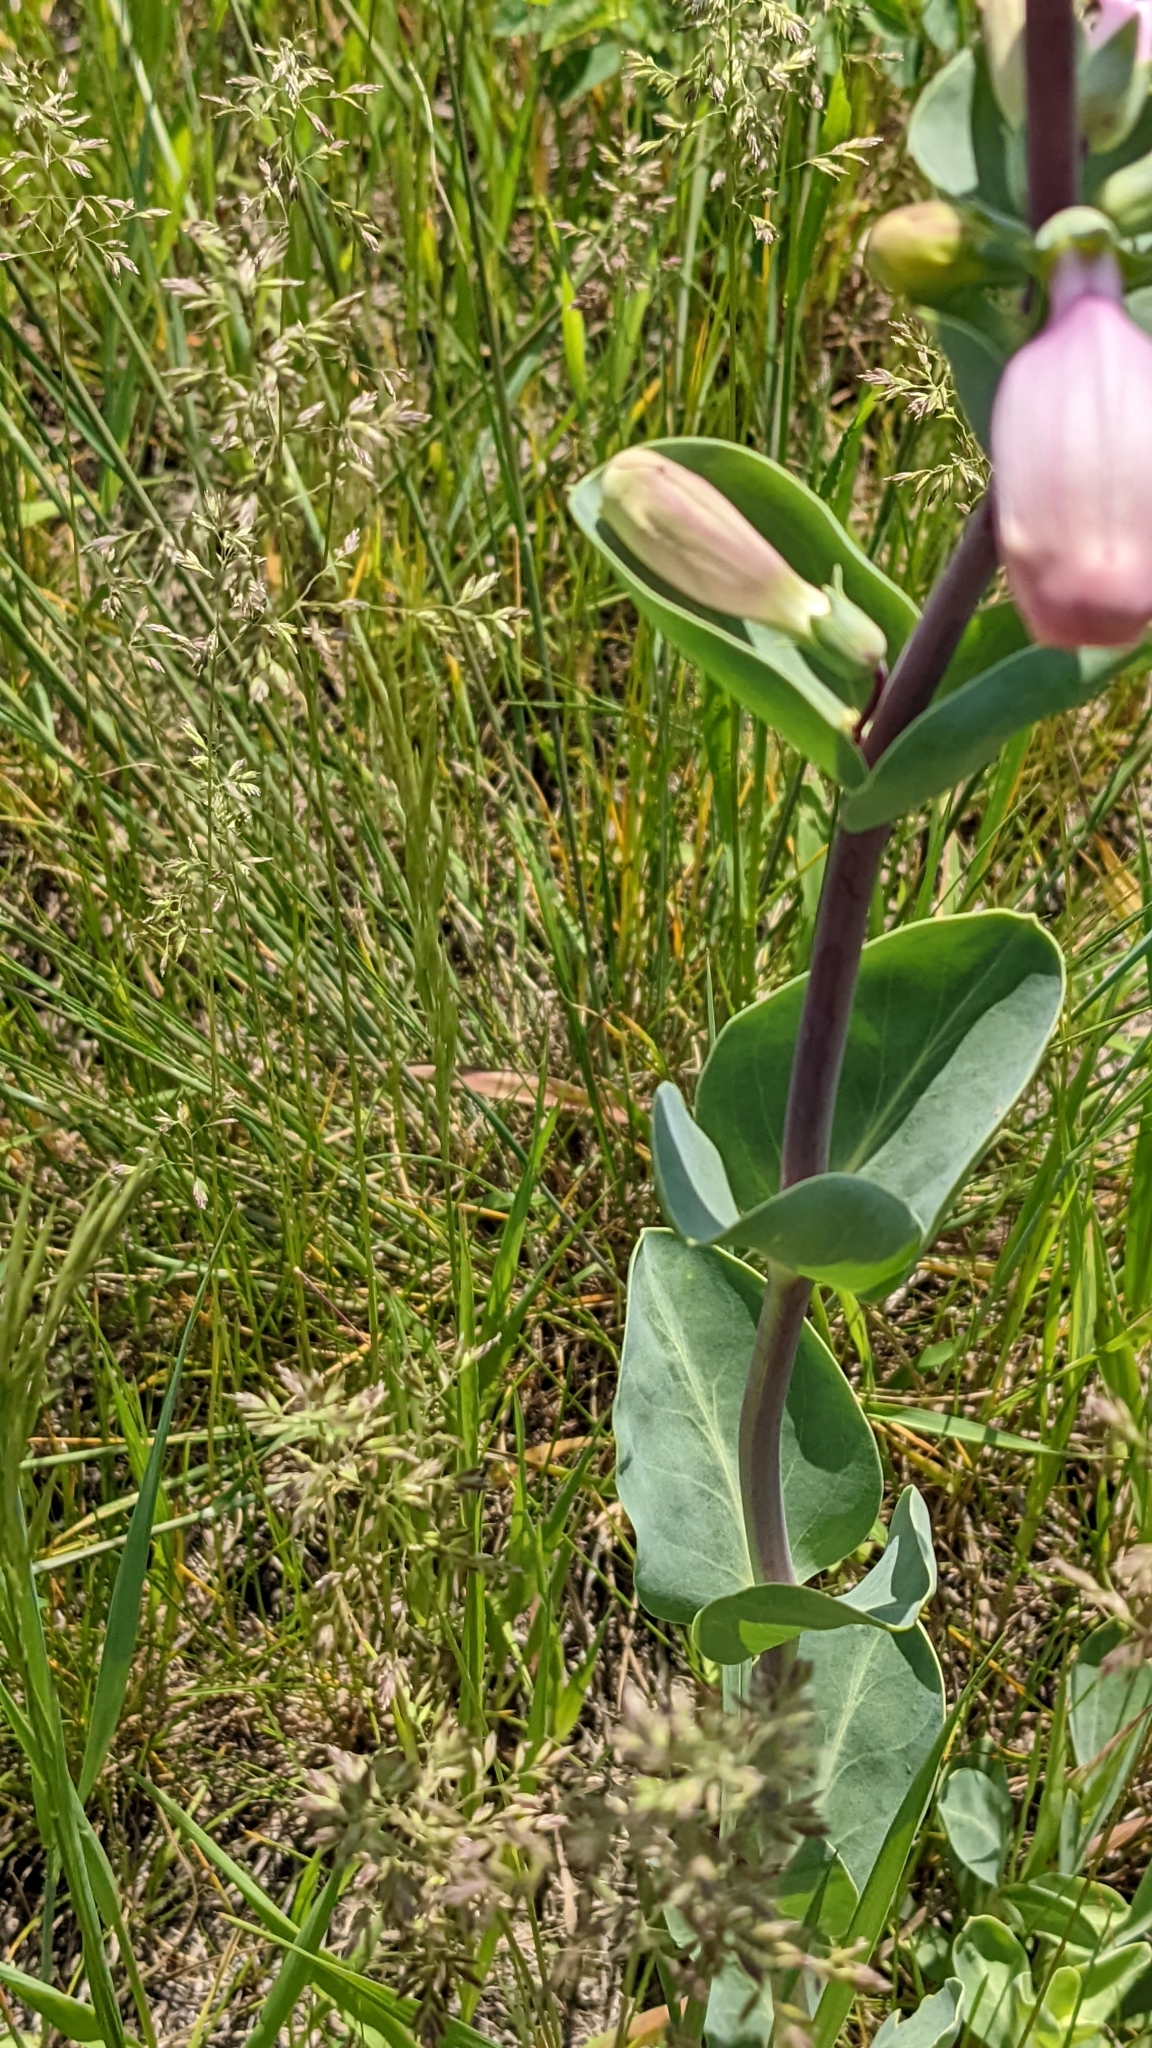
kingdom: Plantae
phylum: Tracheophyta
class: Magnoliopsida
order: Lamiales
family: Plantaginaceae
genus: Penstemon
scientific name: Penstemon
